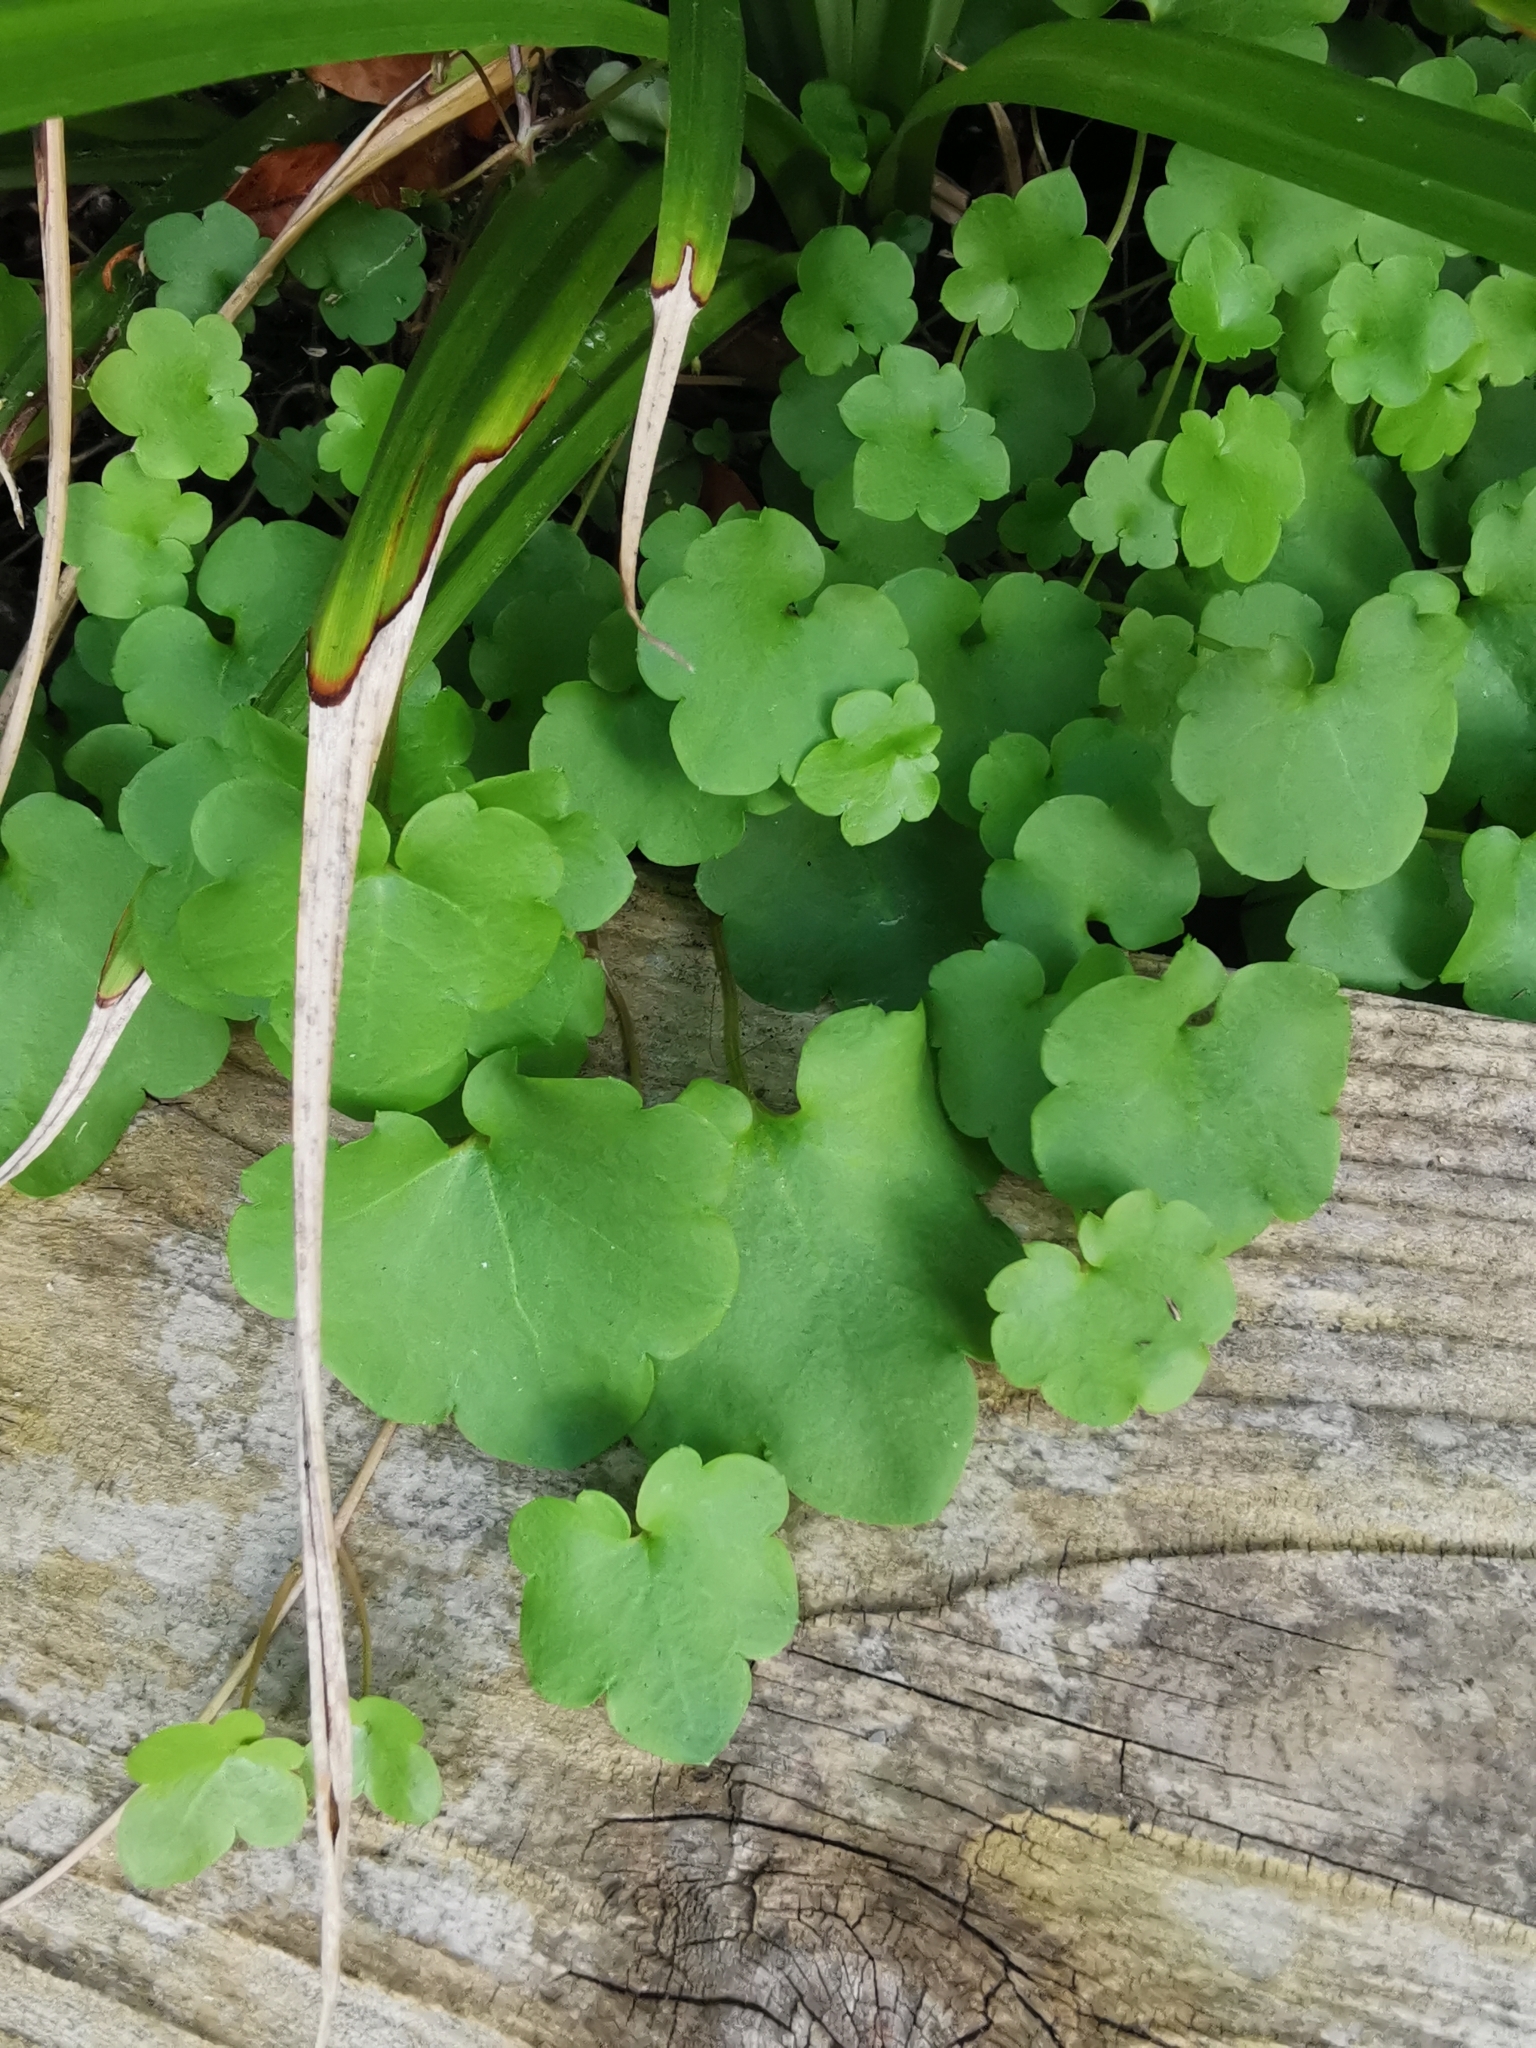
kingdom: Plantae
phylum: Tracheophyta
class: Magnoliopsida
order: Lamiales
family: Plantaginaceae
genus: Cymbalaria
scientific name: Cymbalaria muralis
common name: Ivy-leaved toadflax
